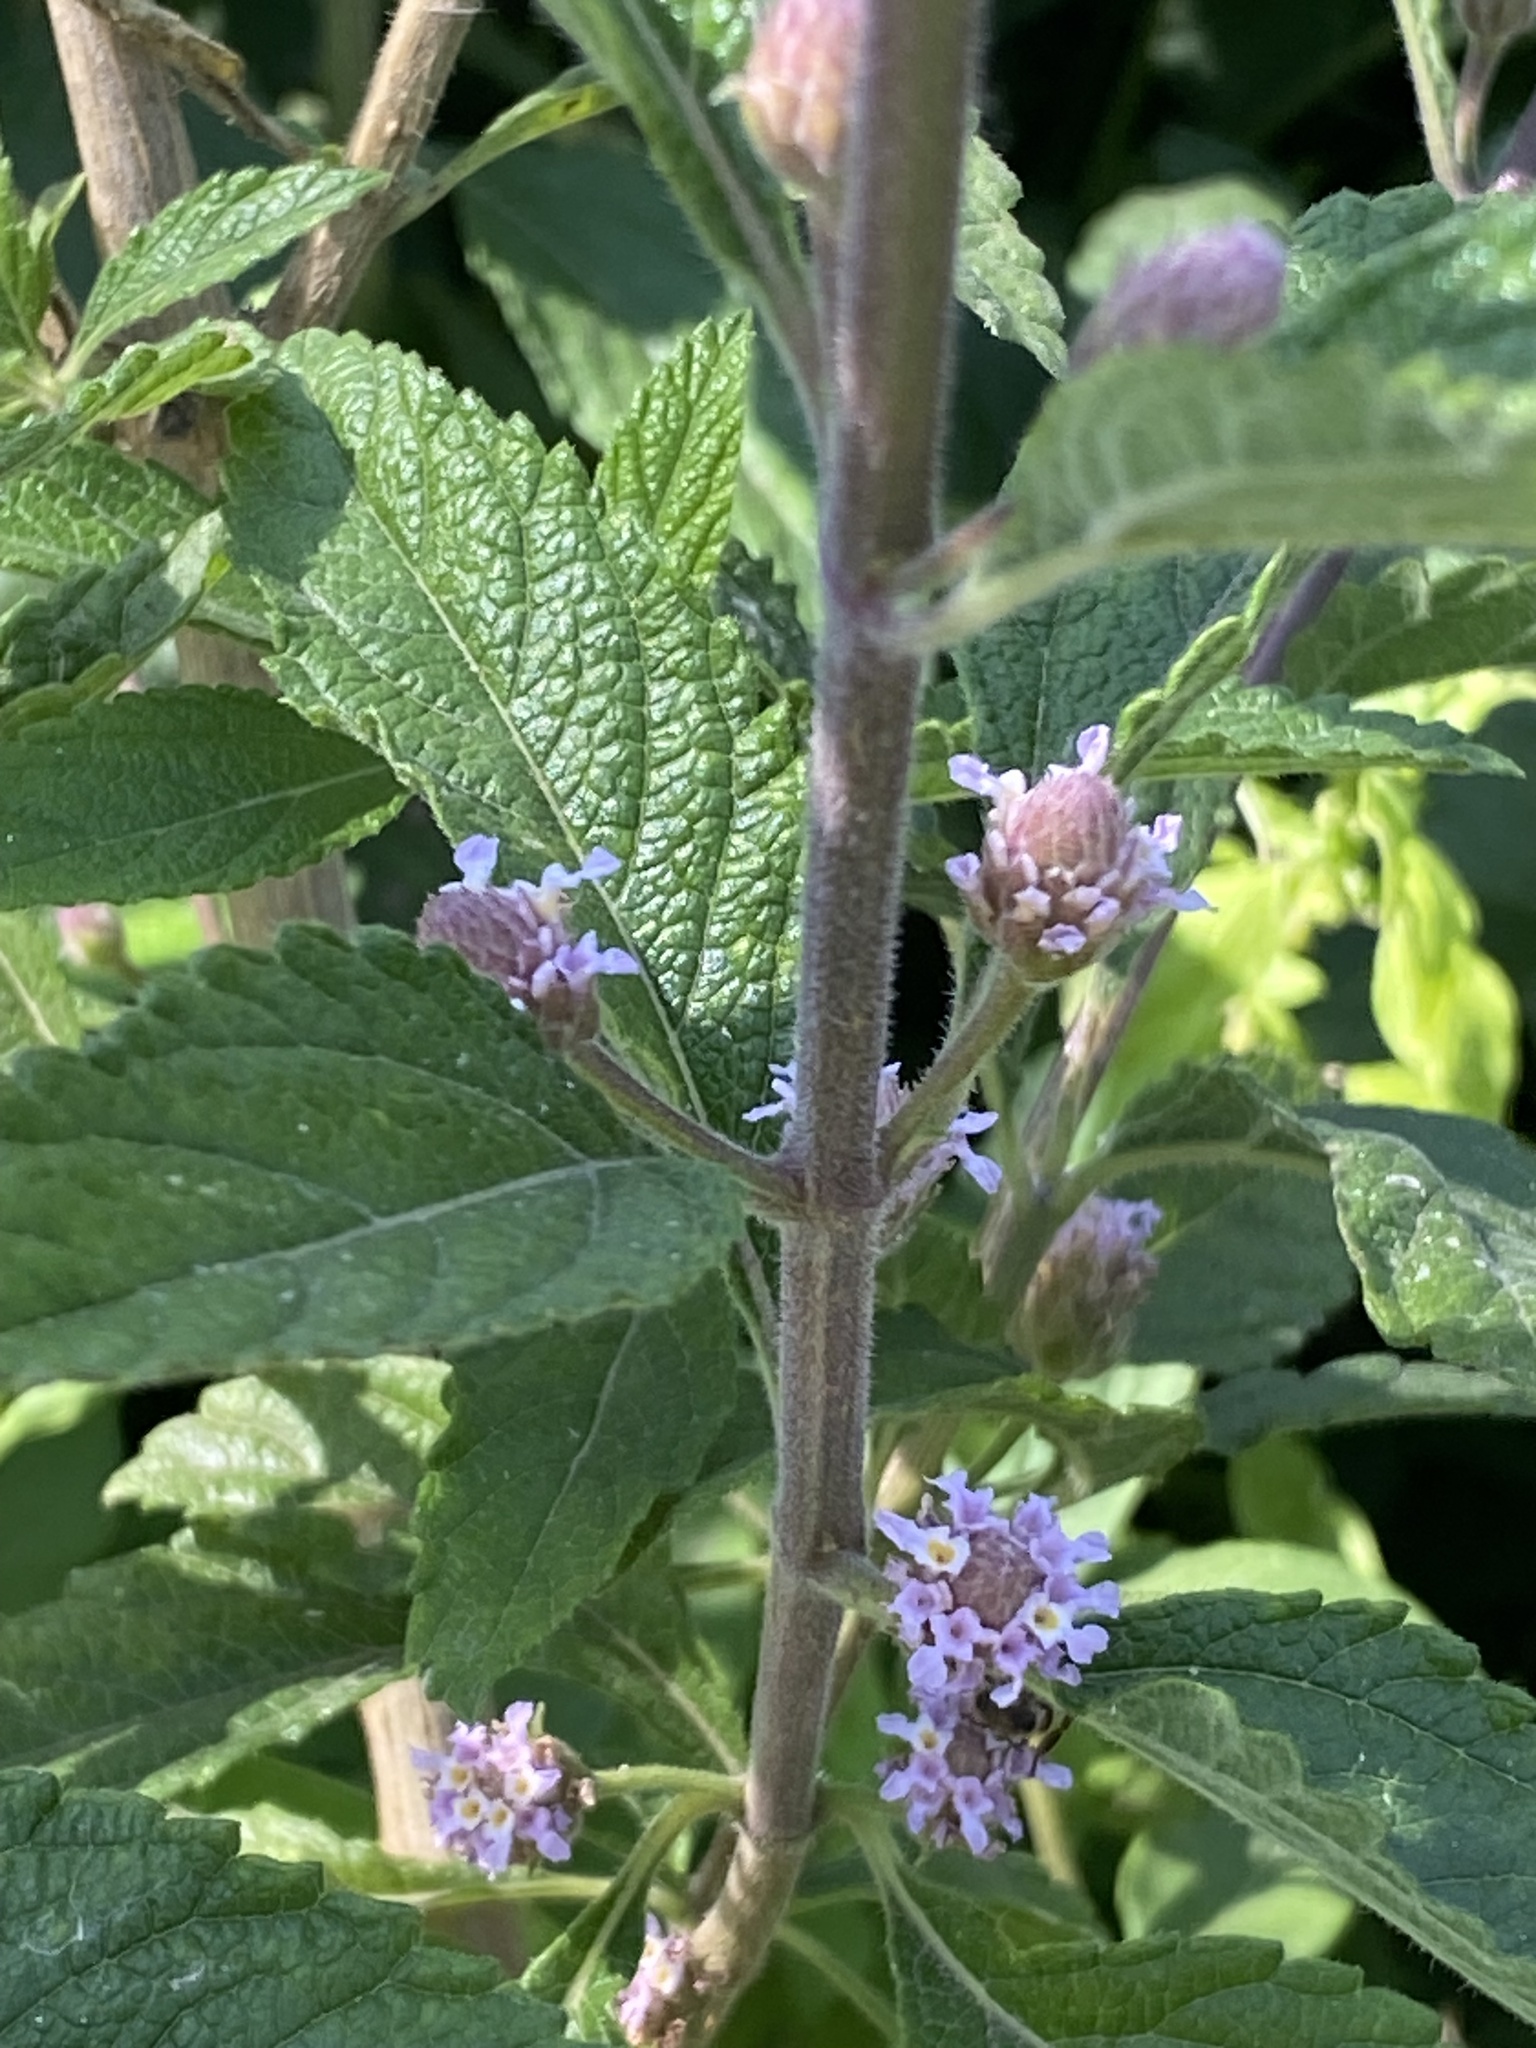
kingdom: Plantae
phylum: Tracheophyta
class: Magnoliopsida
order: Lamiales
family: Verbenaceae
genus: Lippia
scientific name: Lippia alba
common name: Bushy matgrass
